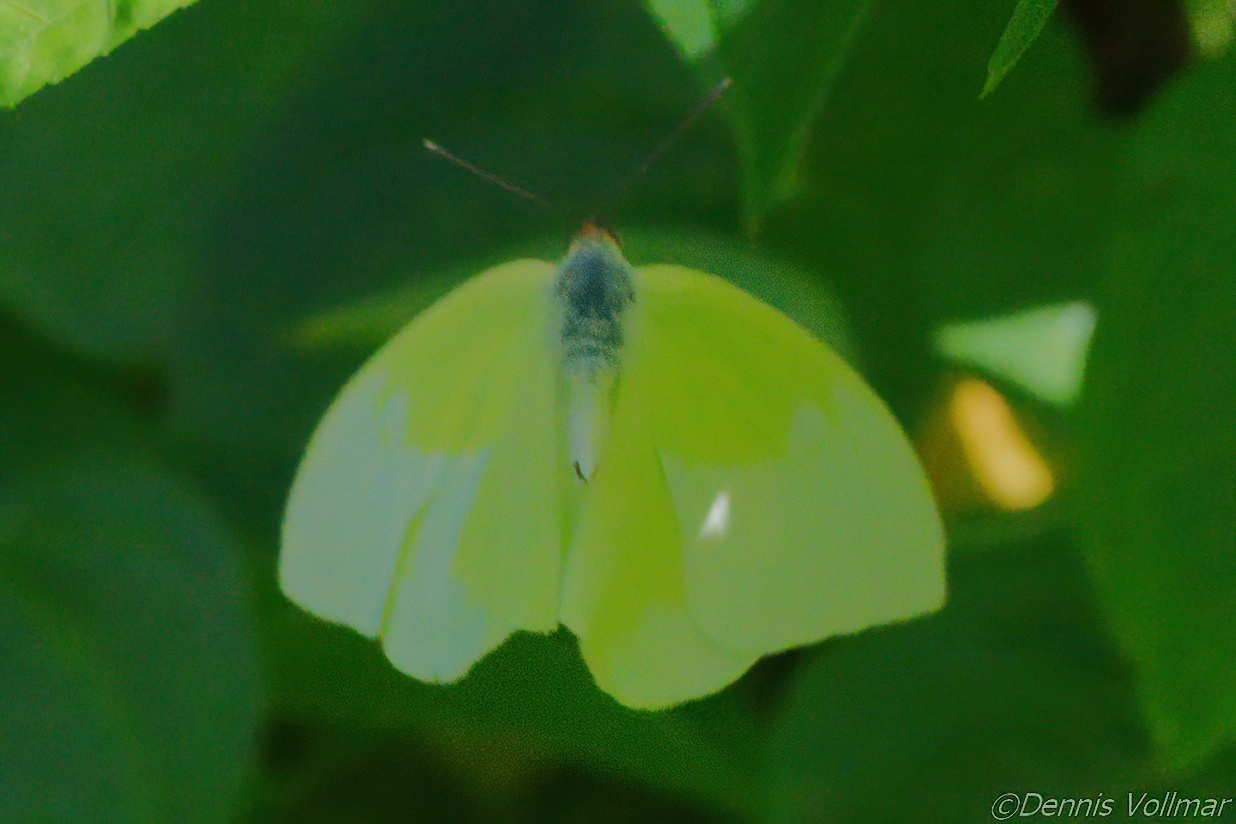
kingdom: Animalia
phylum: Arthropoda
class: Insecta
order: Lepidoptera
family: Pieridae
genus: Aphrissa
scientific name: Aphrissa statira
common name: Statira sulphur
